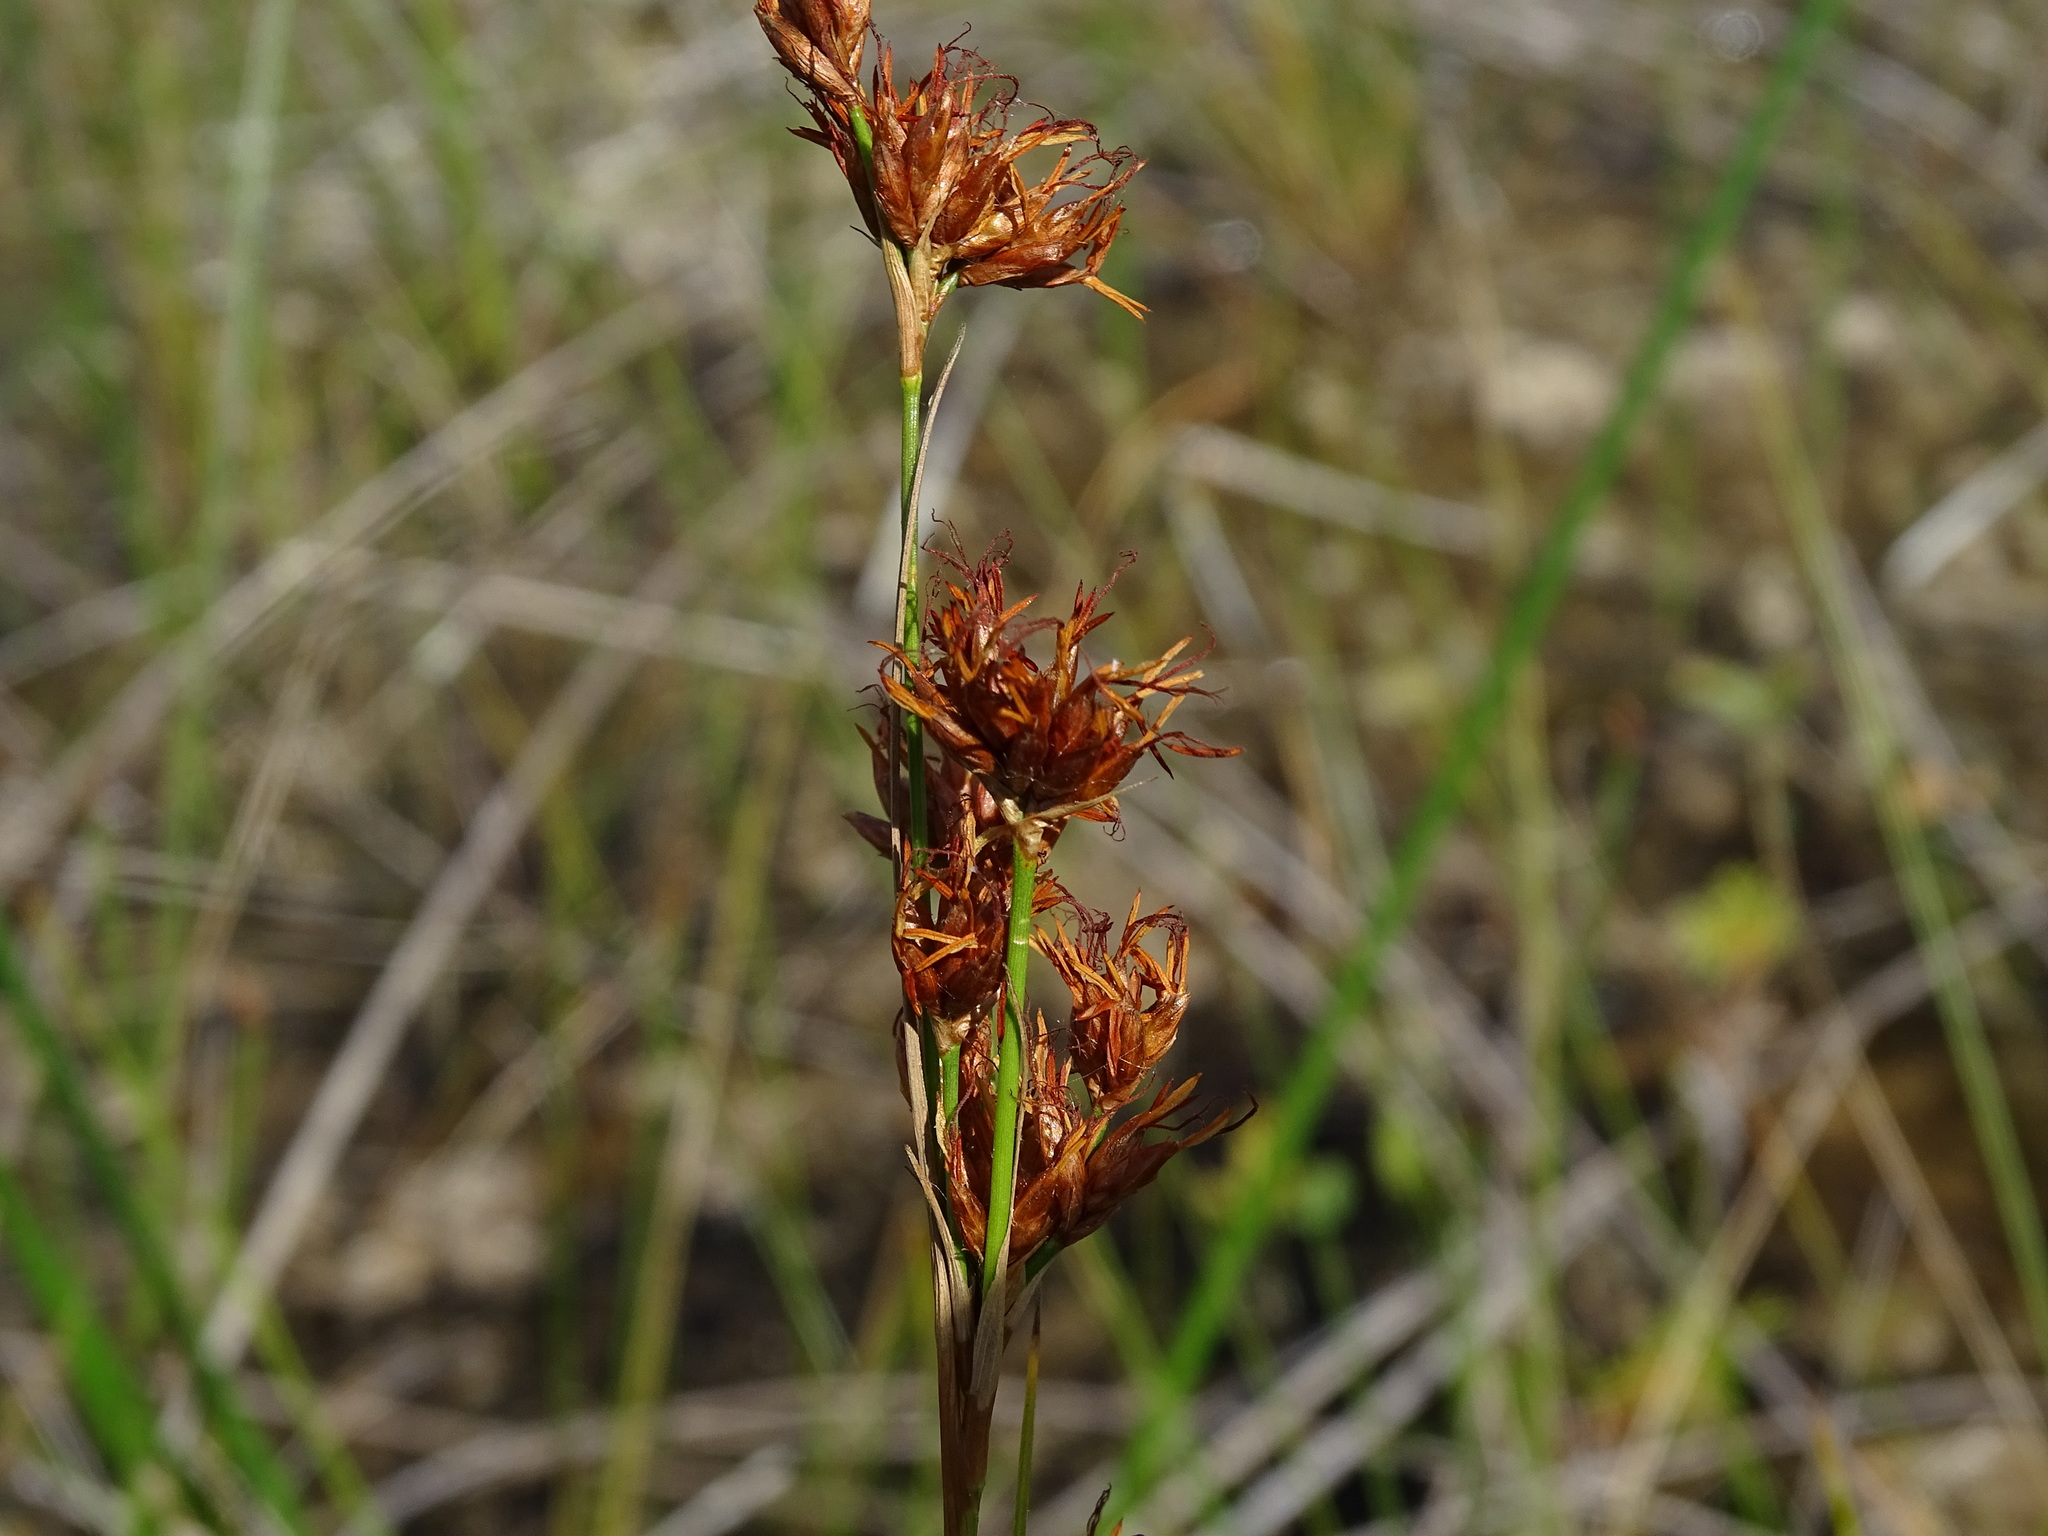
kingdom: Plantae
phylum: Tracheophyta
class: Liliopsida
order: Poales
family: Cyperaceae
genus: Cladium
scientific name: Cladium mariscoides
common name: Smooth sawgrass
